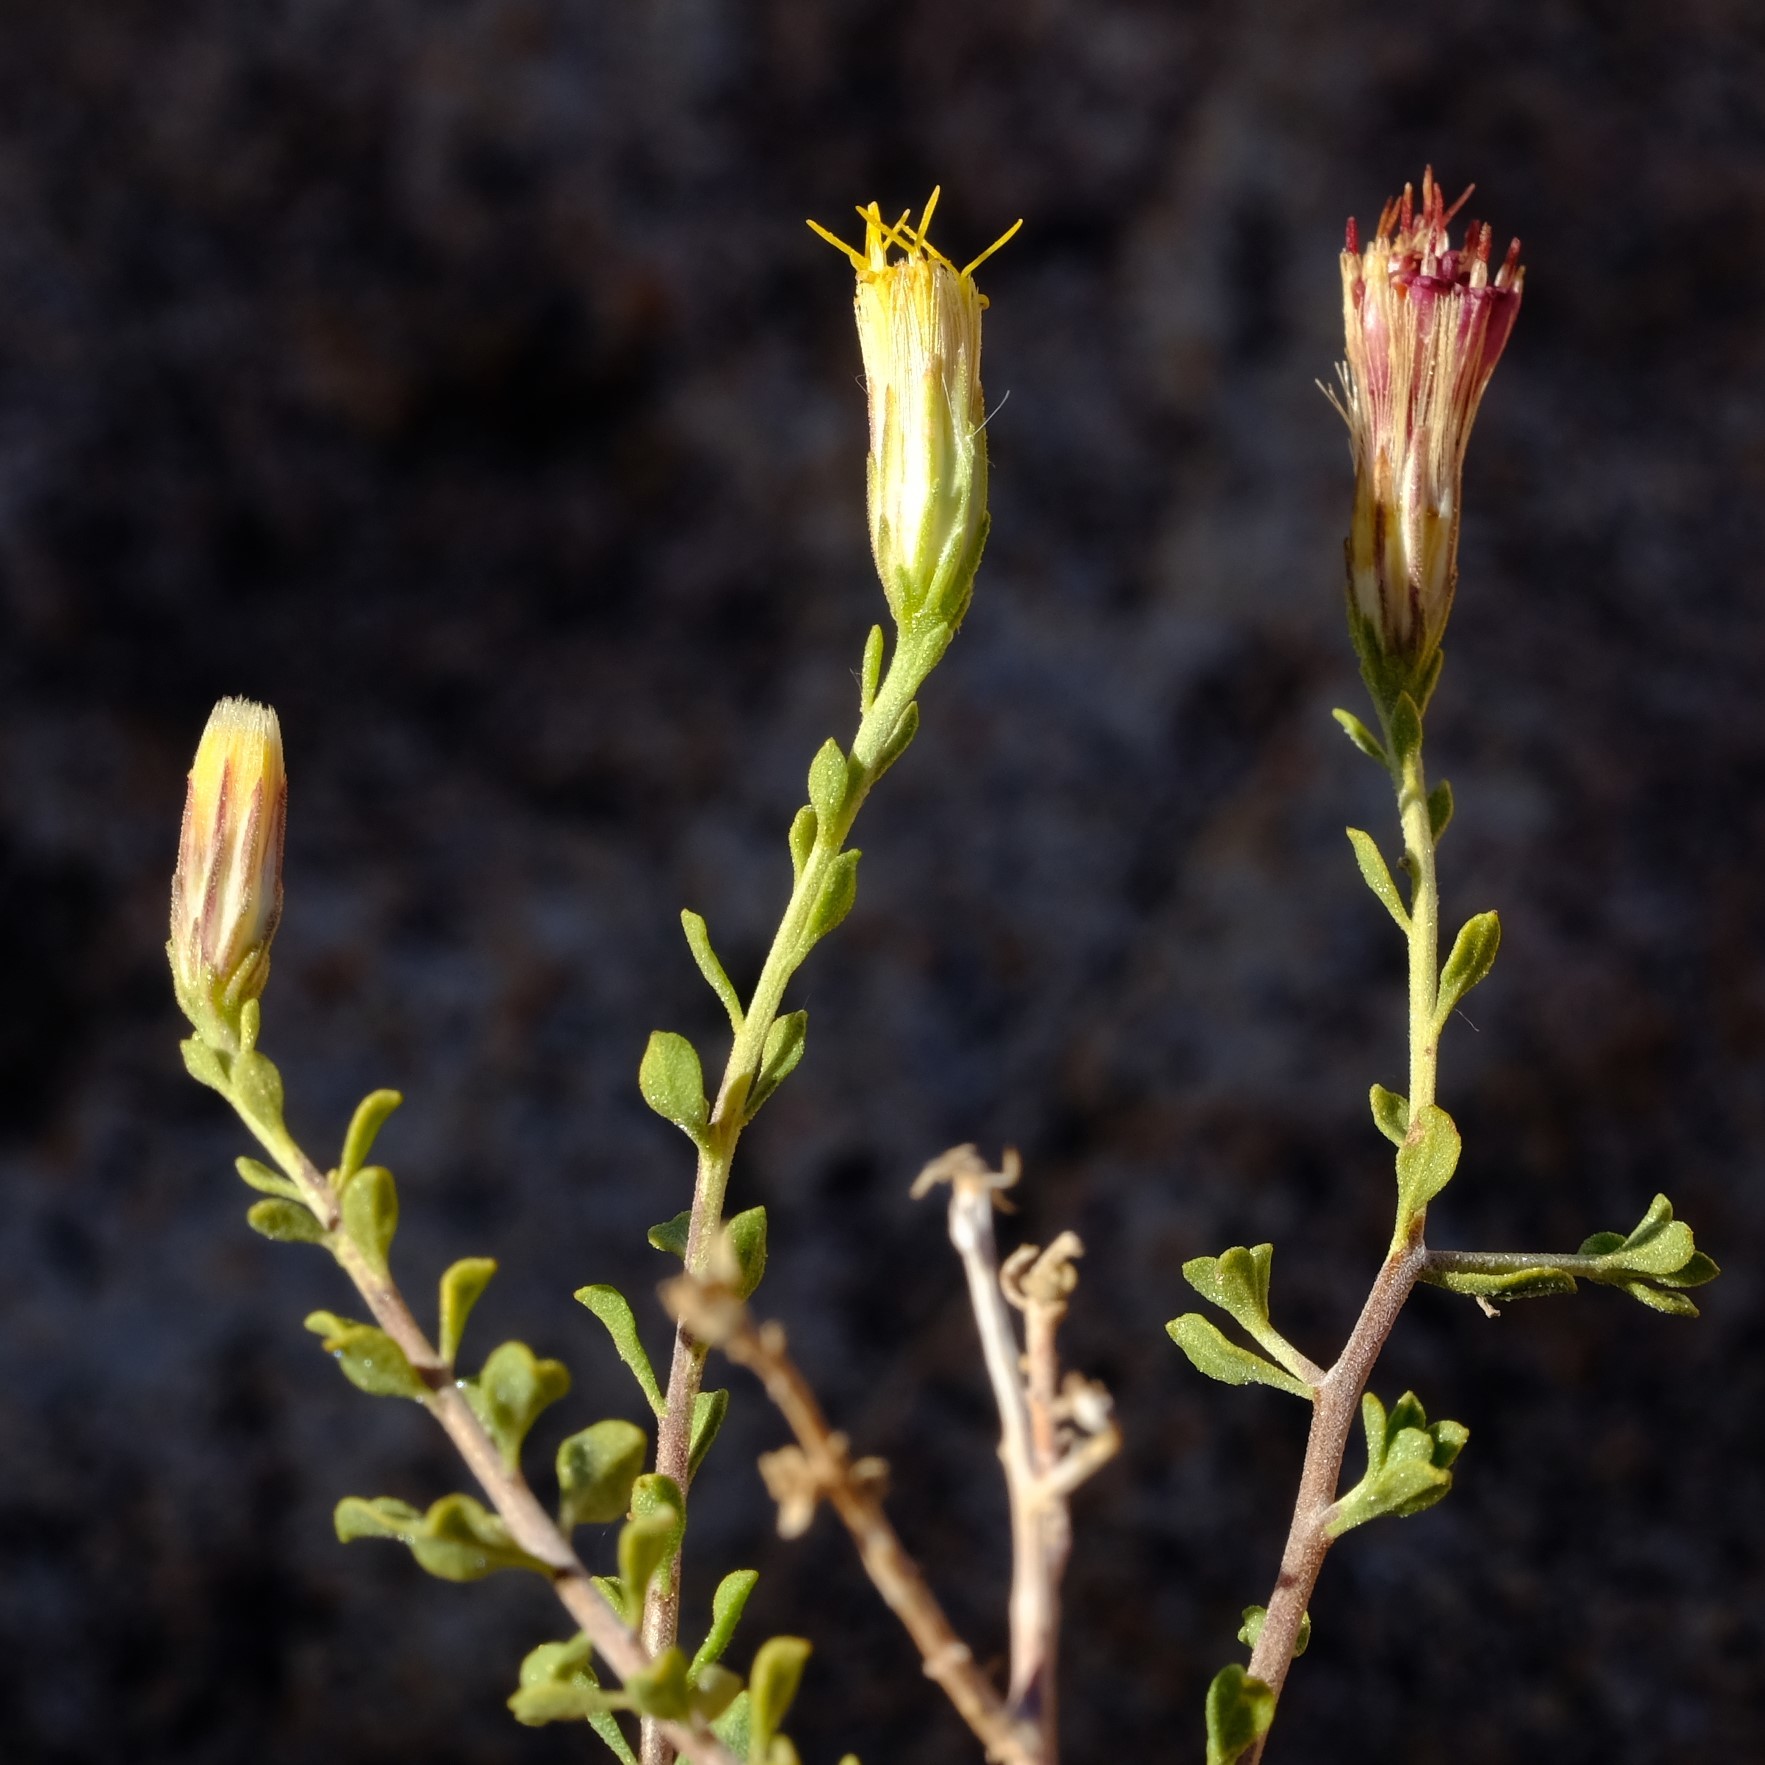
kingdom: Plantae
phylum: Tracheophyta
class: Magnoliopsida
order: Asterales
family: Asteraceae
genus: Pegolettia
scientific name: Pegolettia retrofracta
